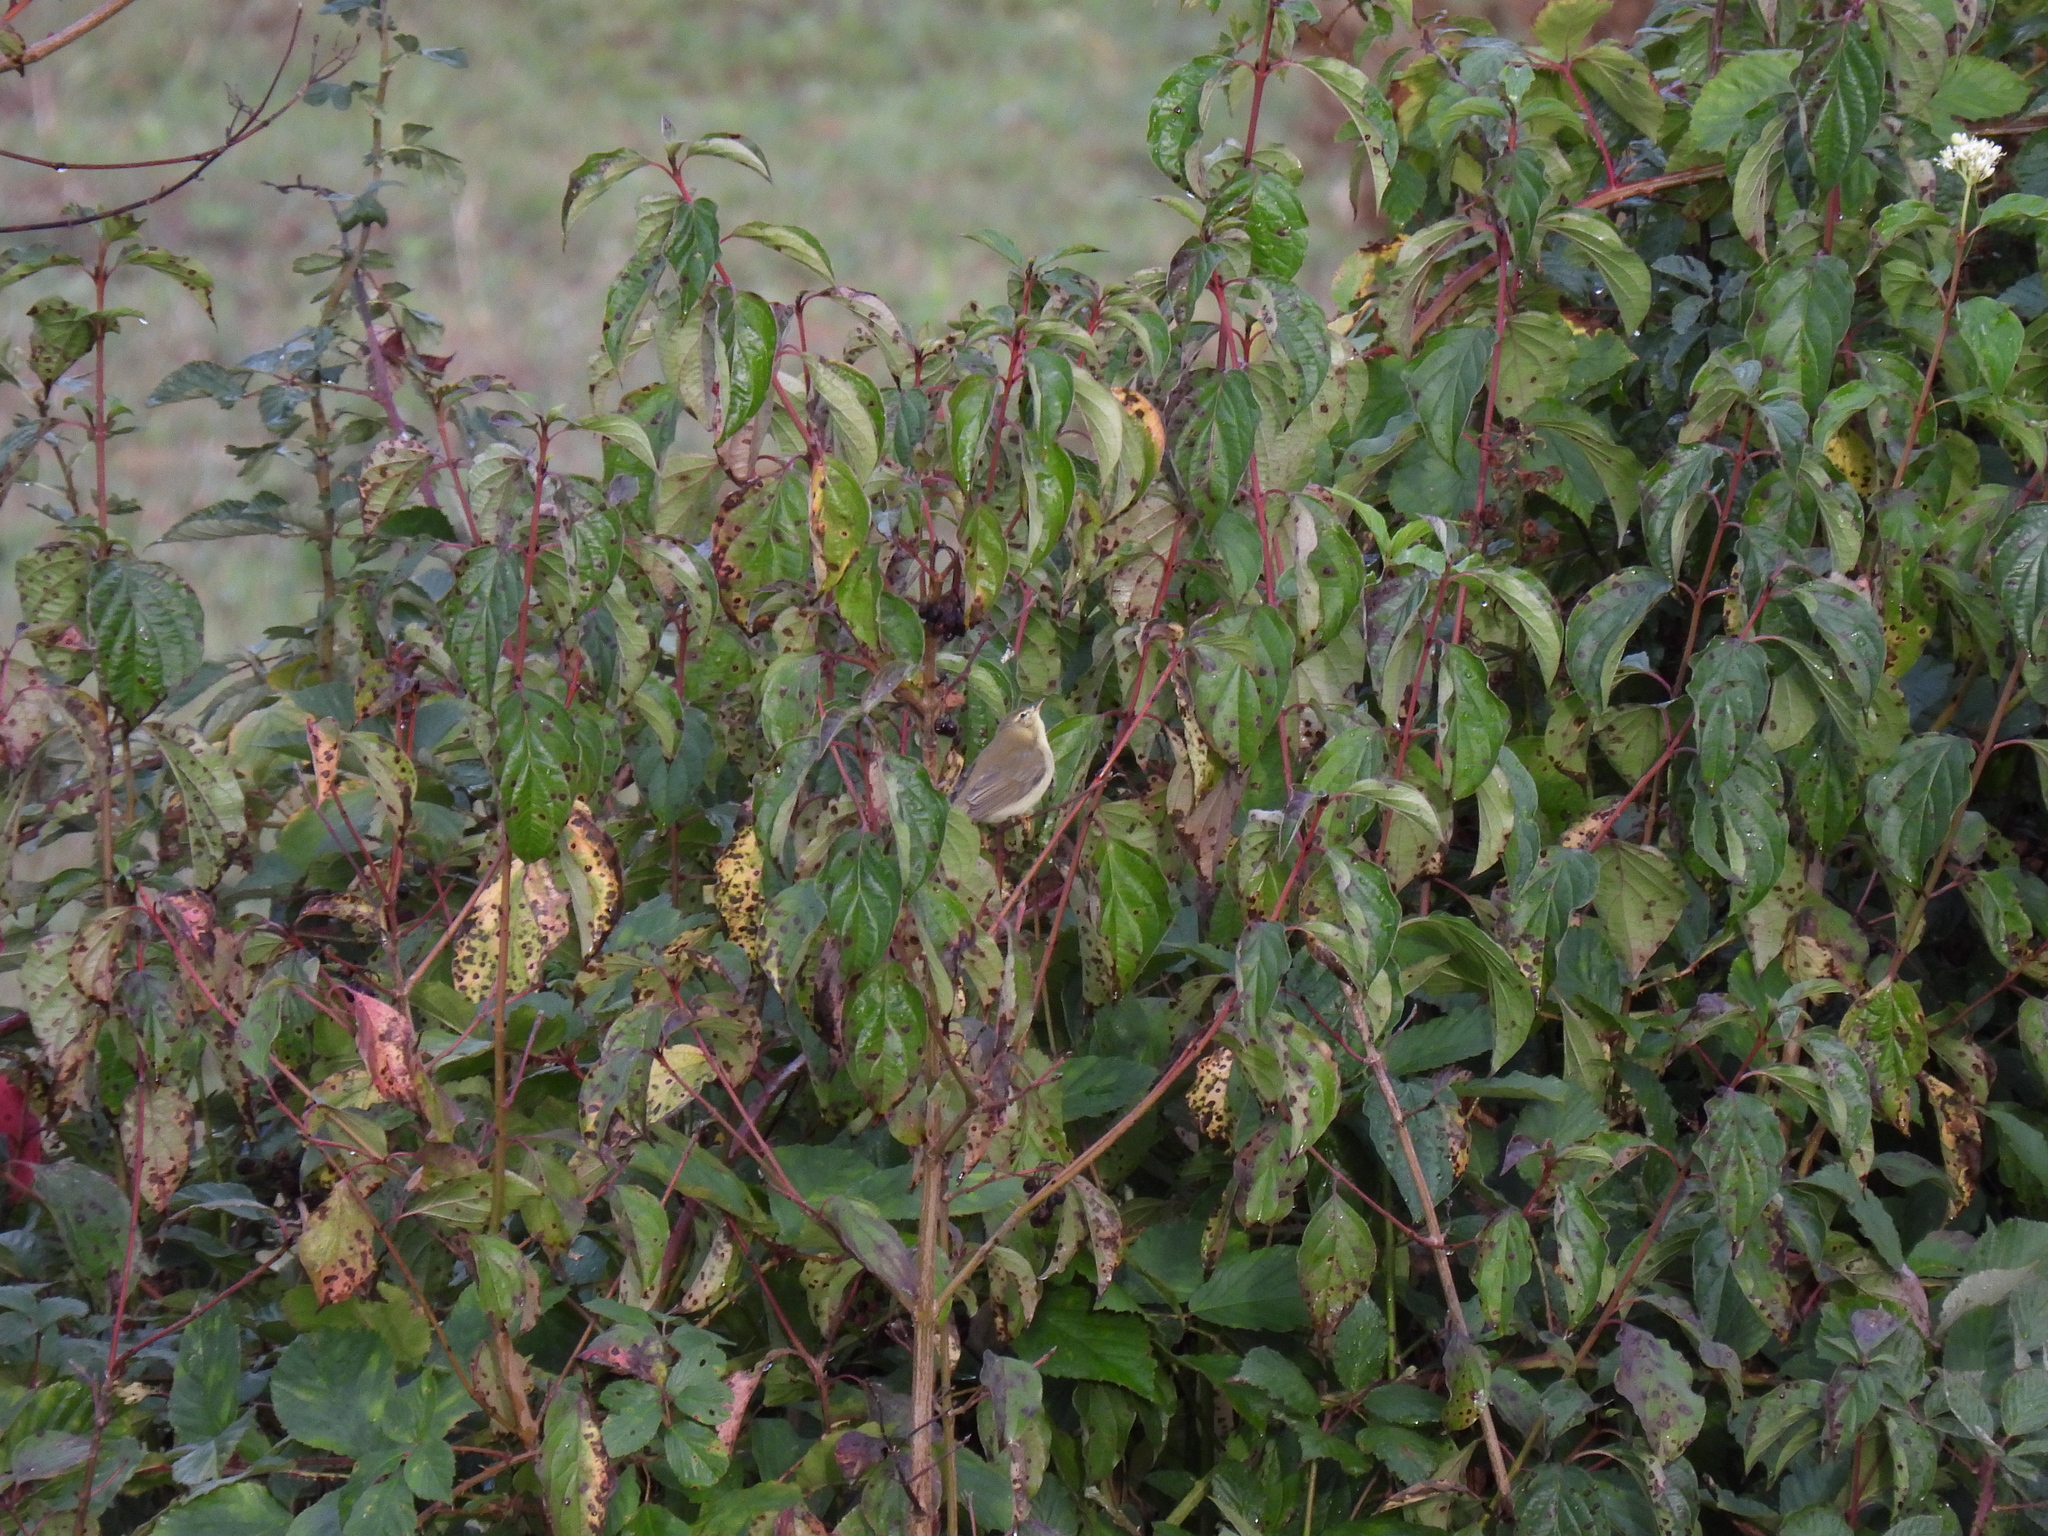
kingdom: Animalia
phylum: Chordata
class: Aves
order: Passeriformes
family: Phylloscopidae
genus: Phylloscopus
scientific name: Phylloscopus trochilus
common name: Willow warbler
